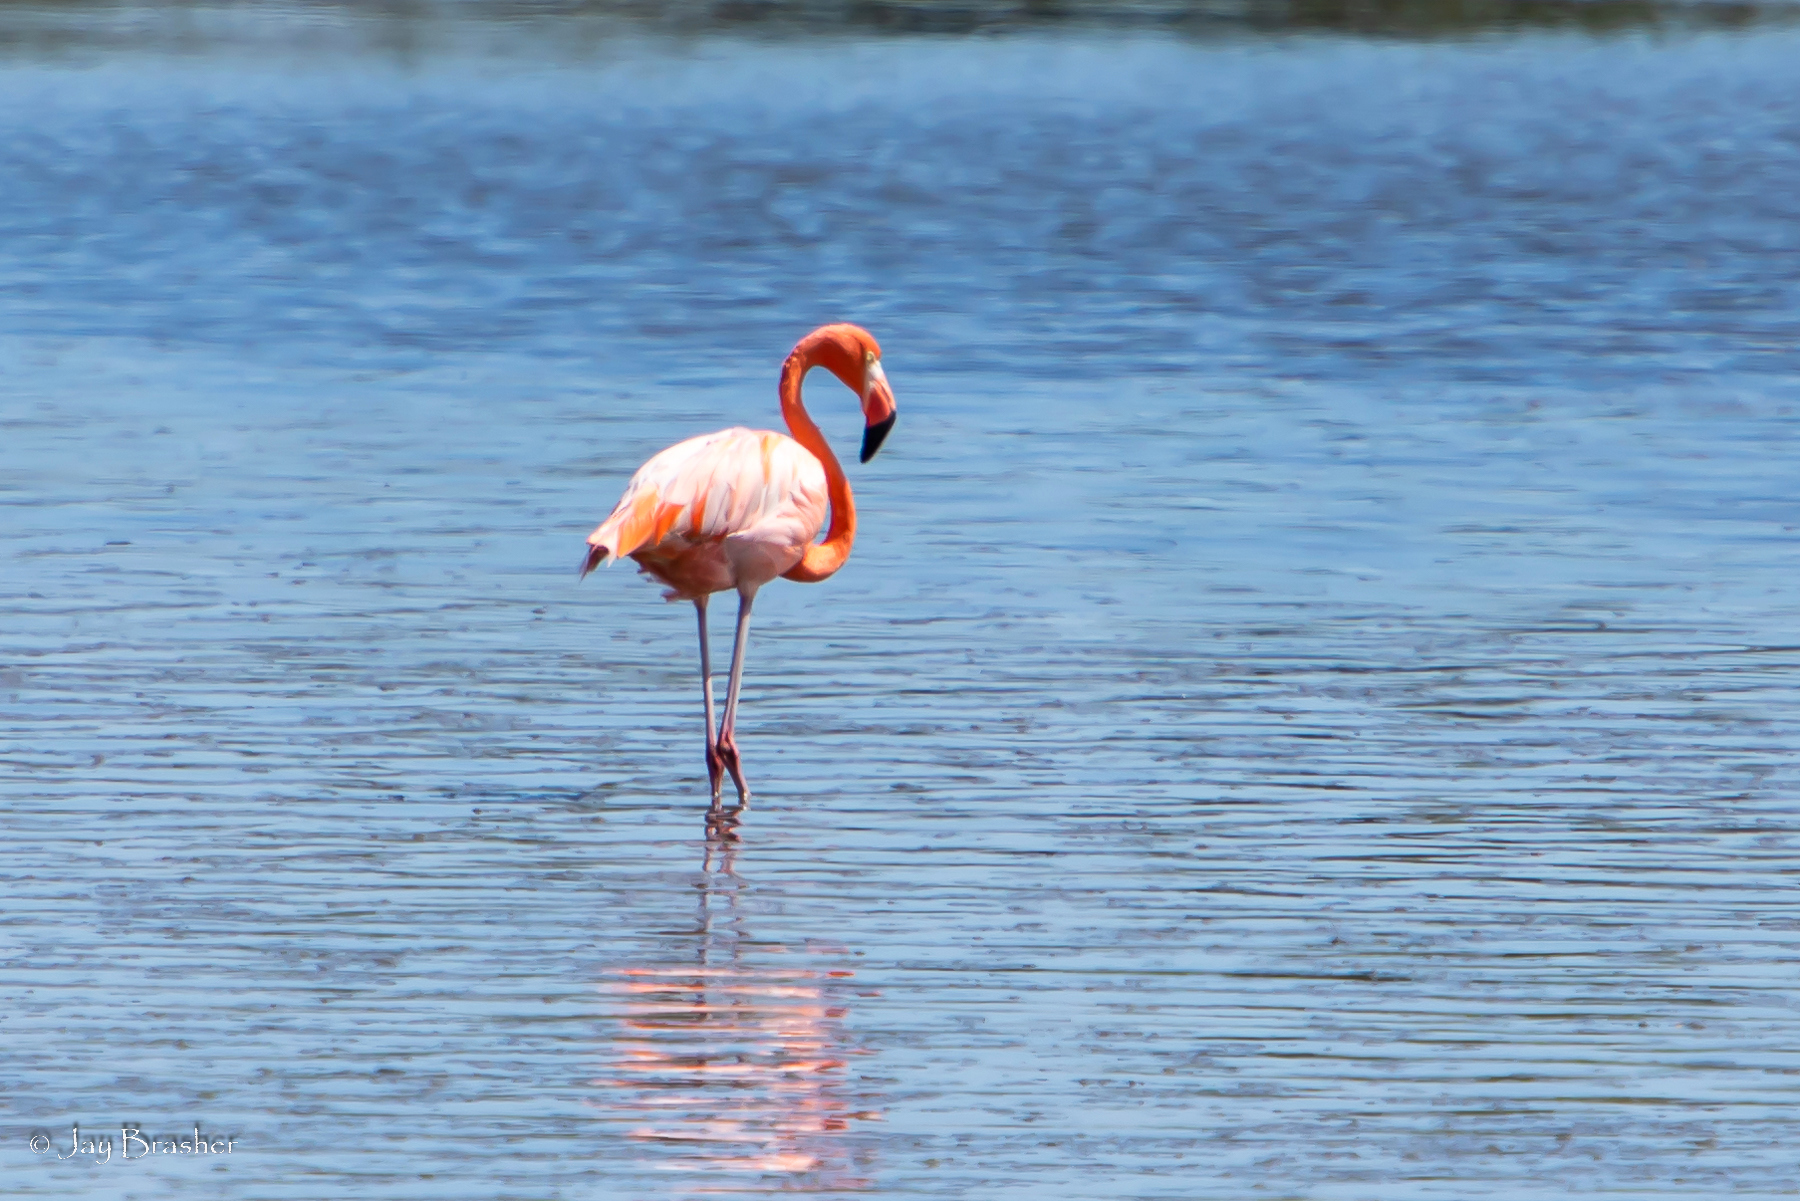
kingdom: Animalia
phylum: Chordata
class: Aves
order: Phoenicopteriformes
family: Phoenicopteridae
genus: Phoenicopterus
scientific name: Phoenicopterus ruber
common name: American flamingo
